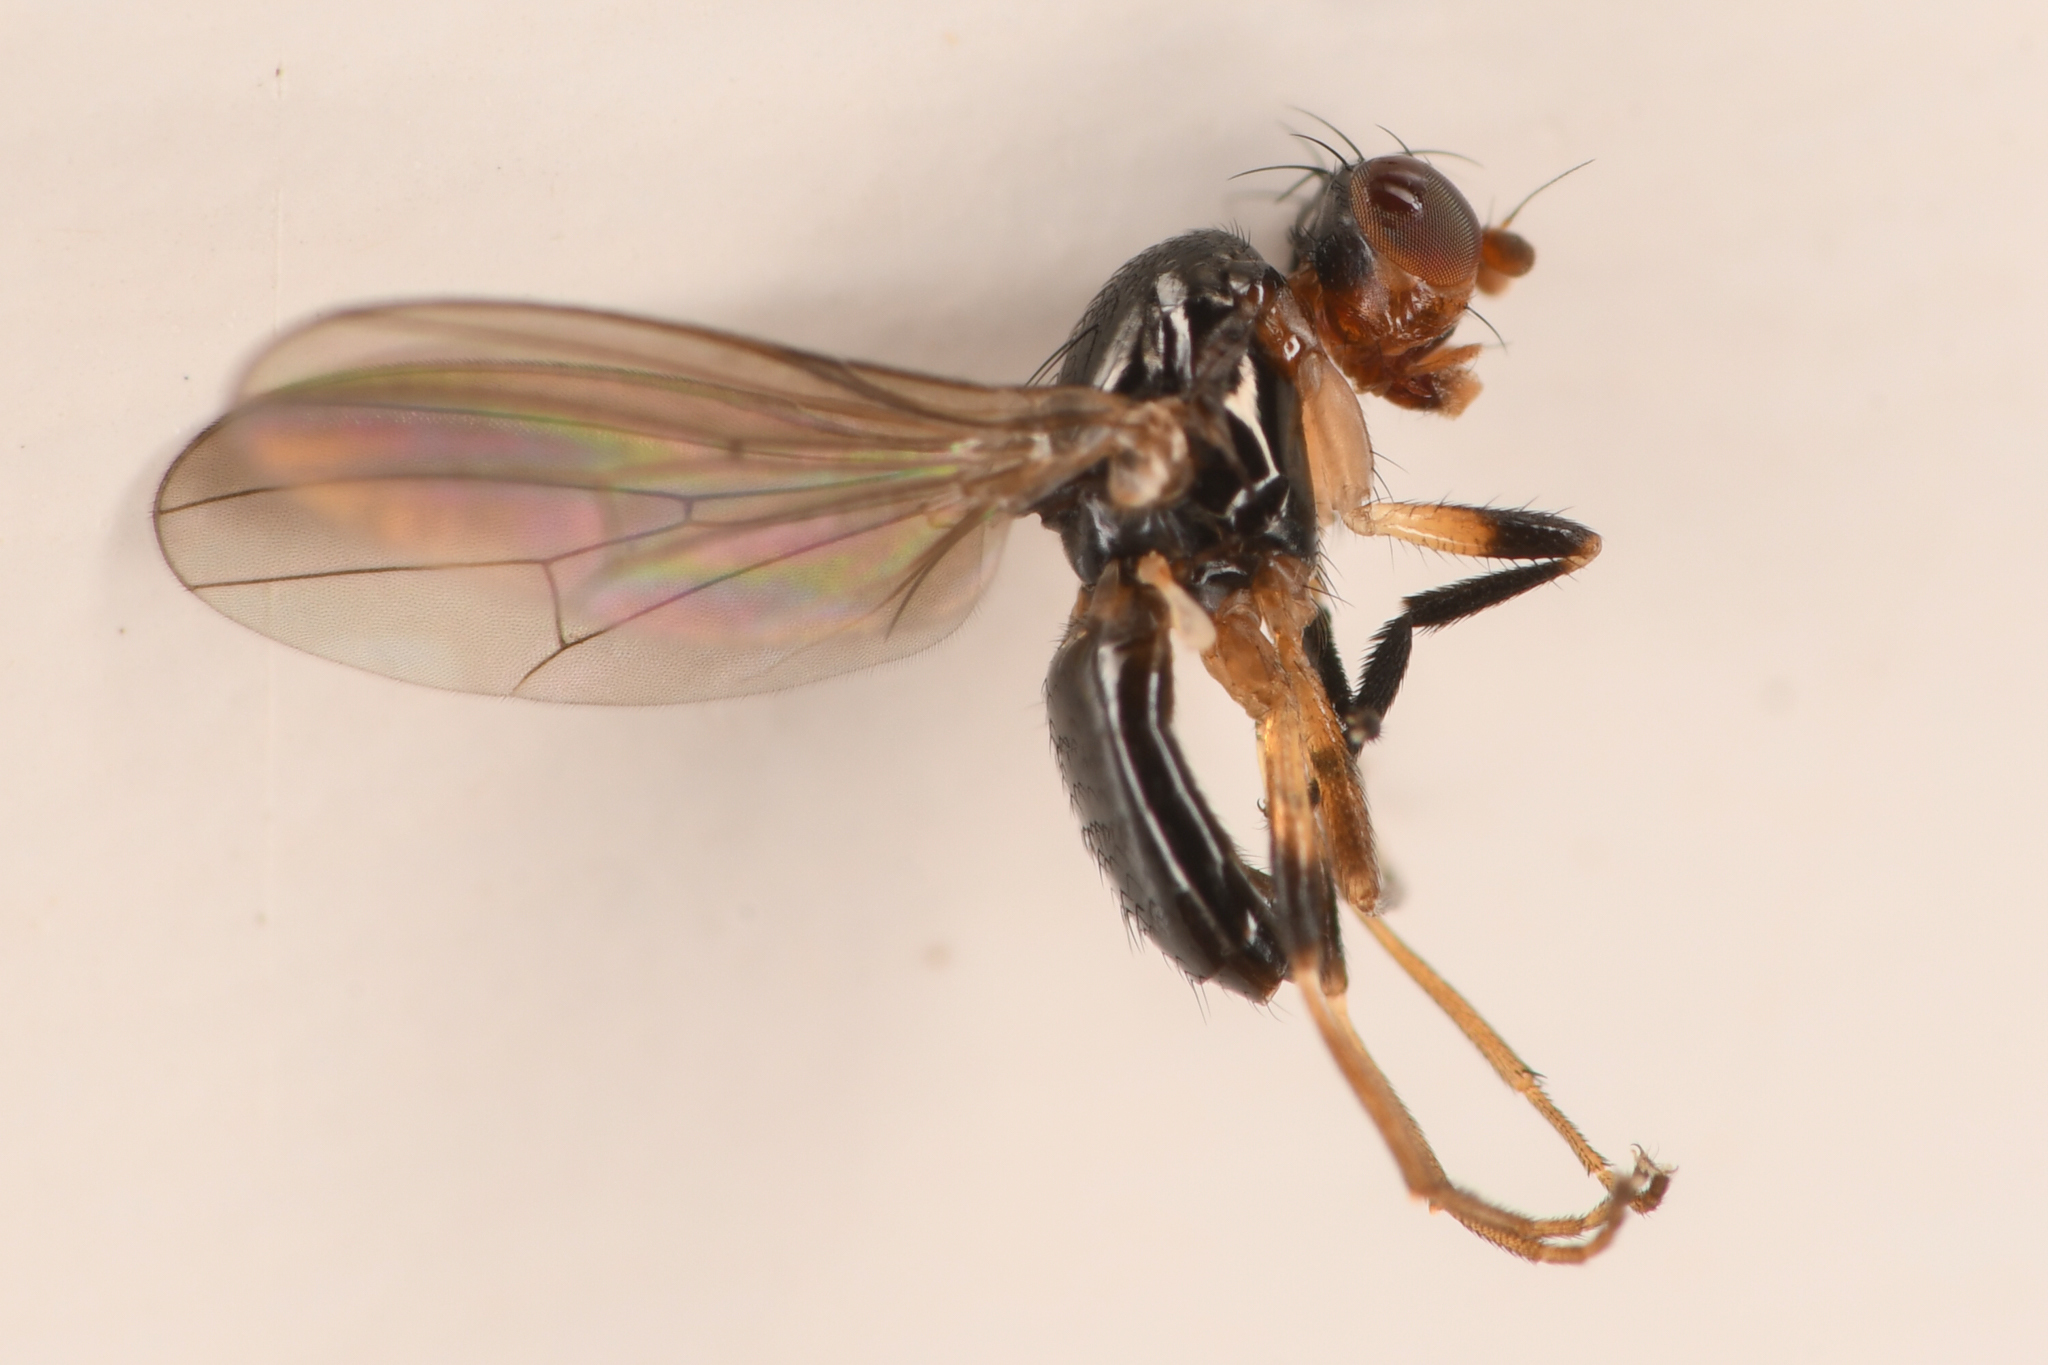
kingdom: Animalia
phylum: Arthropoda
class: Insecta
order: Diptera
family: Piophilidae
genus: Mycetaulus
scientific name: Mycetaulus nigritellus
